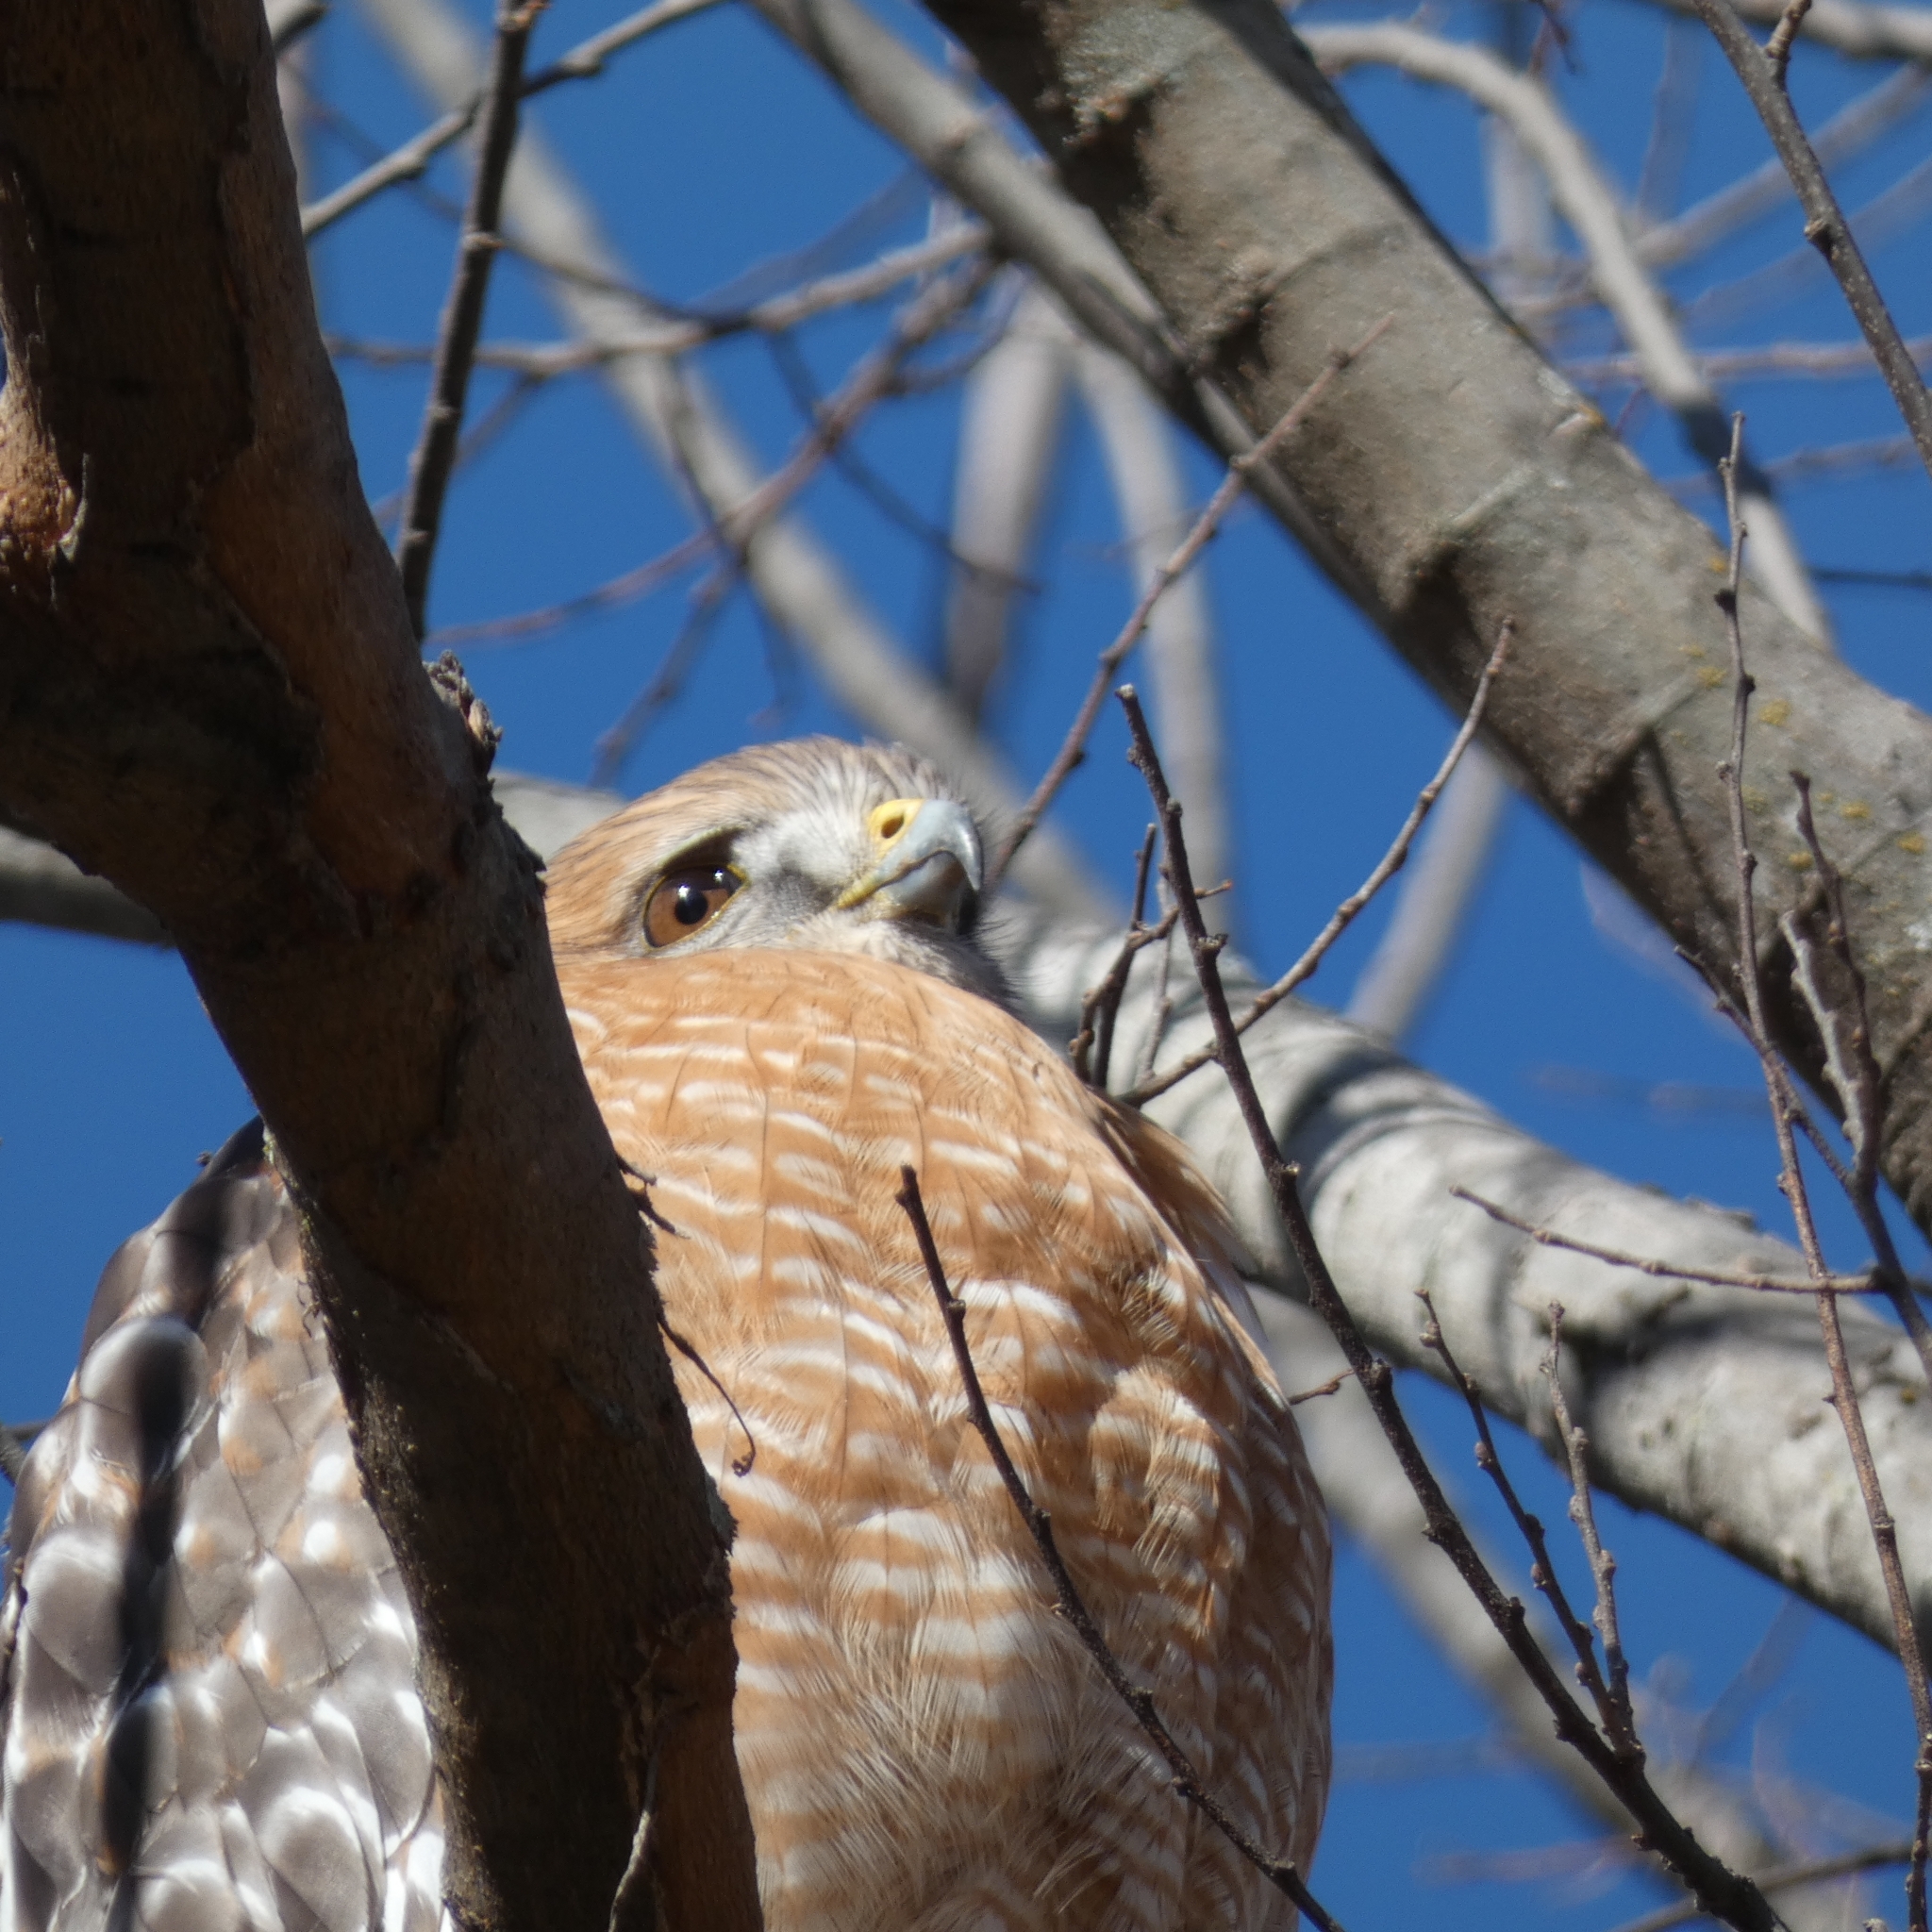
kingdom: Animalia
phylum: Chordata
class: Aves
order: Accipitriformes
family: Accipitridae
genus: Buteo
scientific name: Buteo lineatus
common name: Red-shouldered hawk
